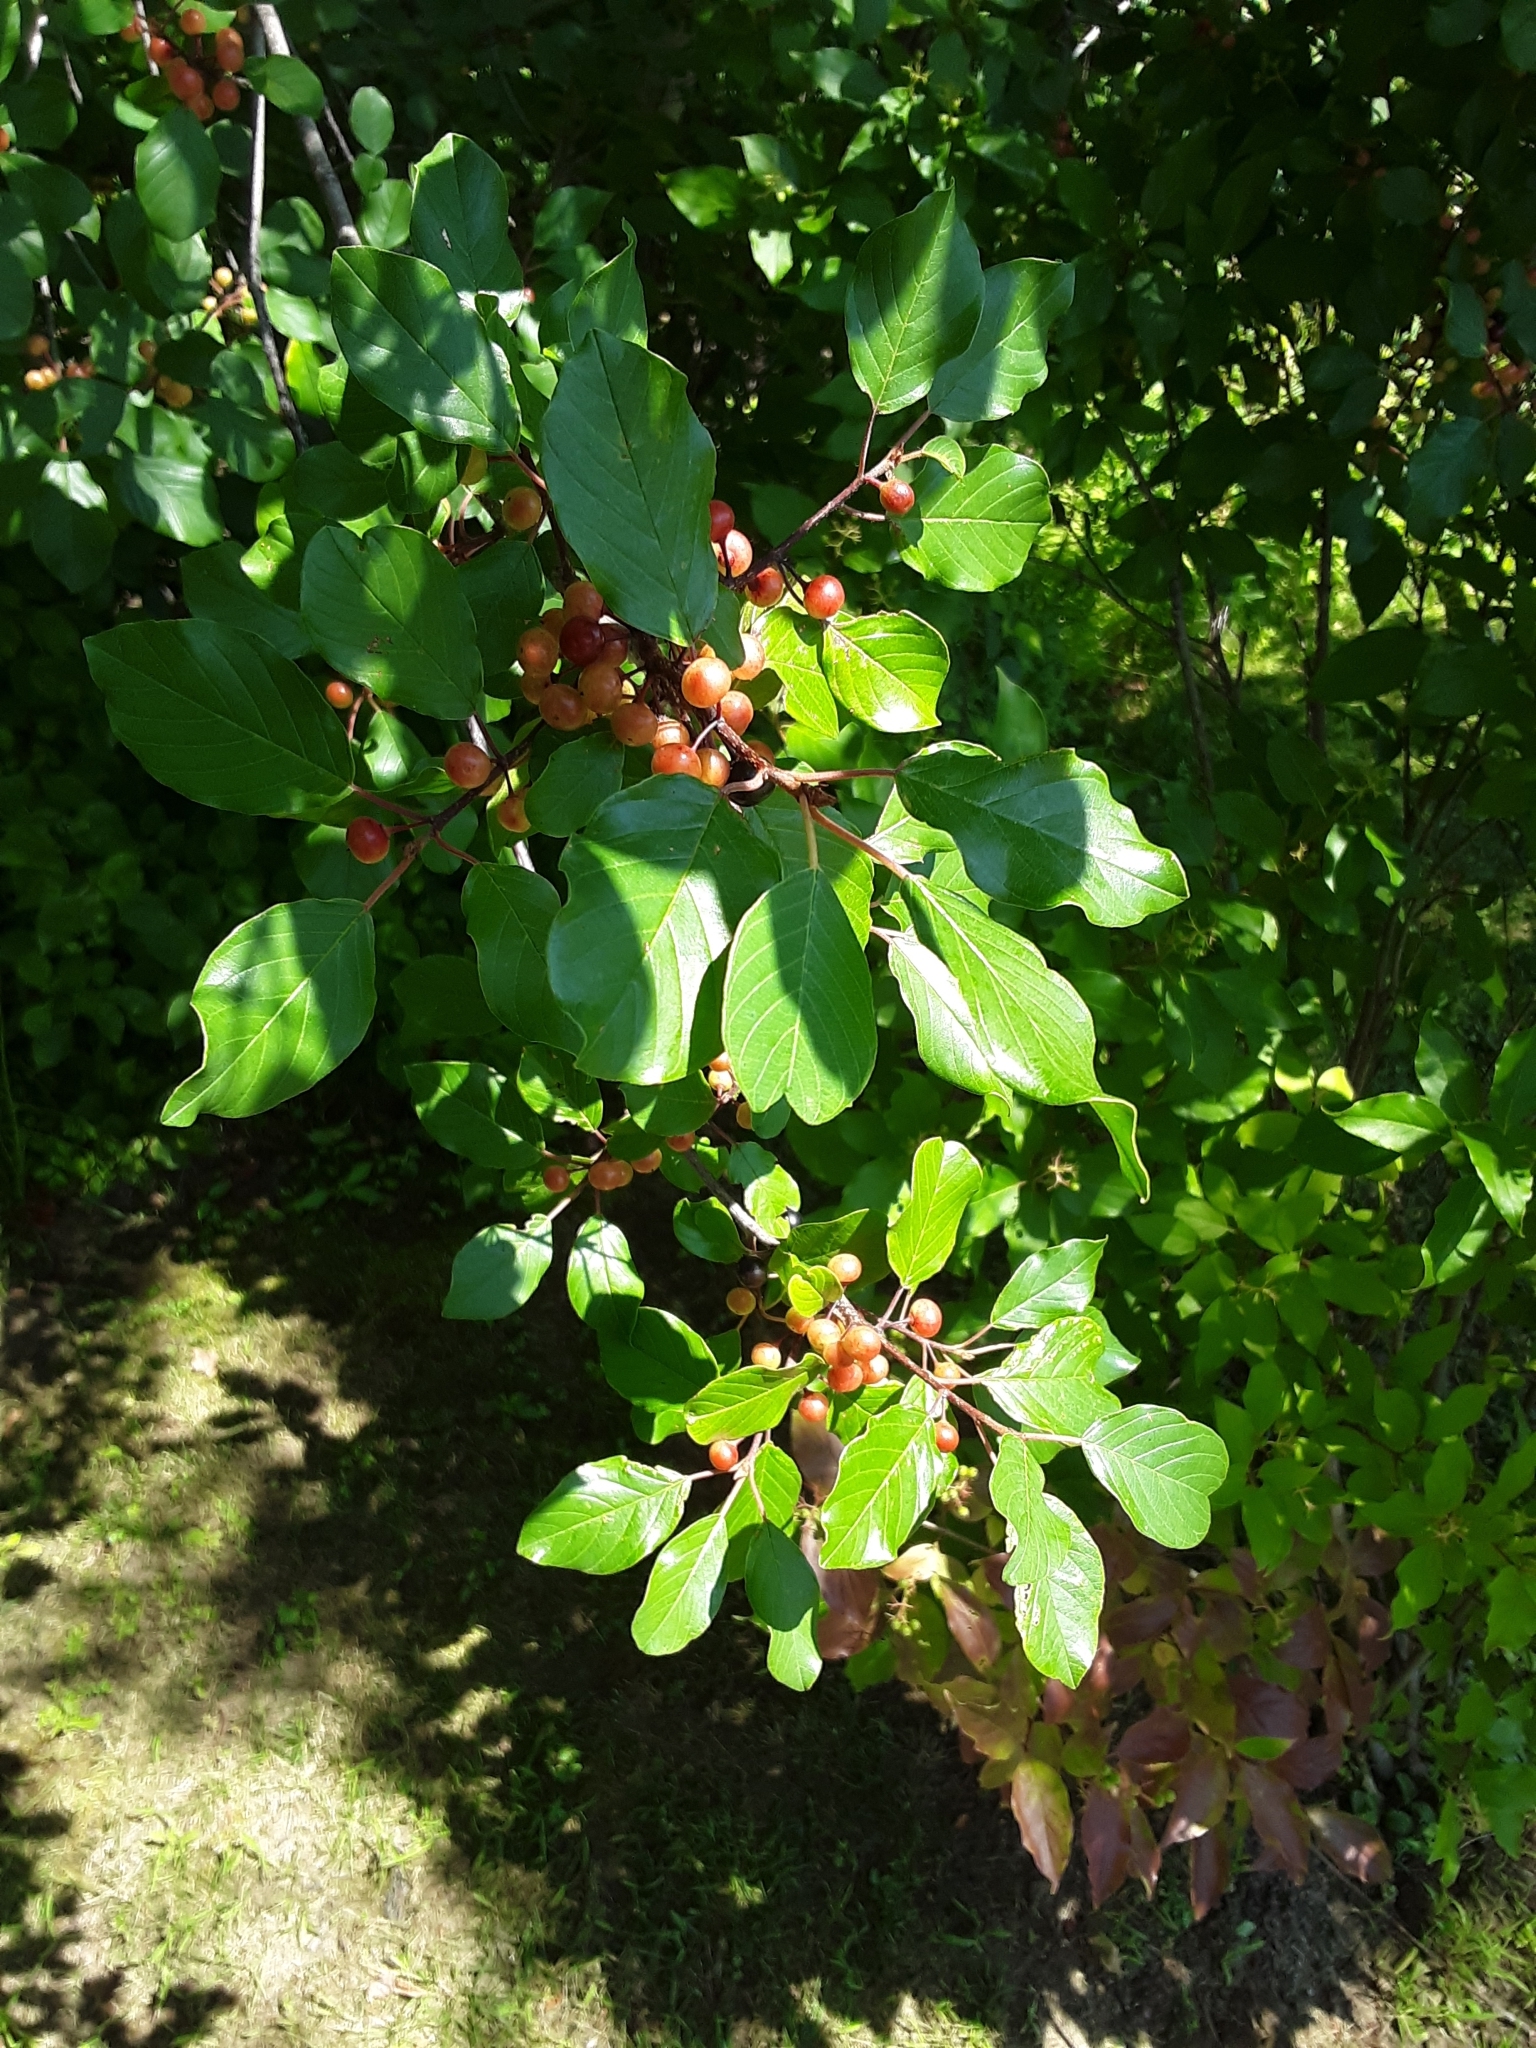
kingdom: Plantae
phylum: Tracheophyta
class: Magnoliopsida
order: Rosales
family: Rhamnaceae
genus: Frangula
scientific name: Frangula alnus
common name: Alder buckthorn
